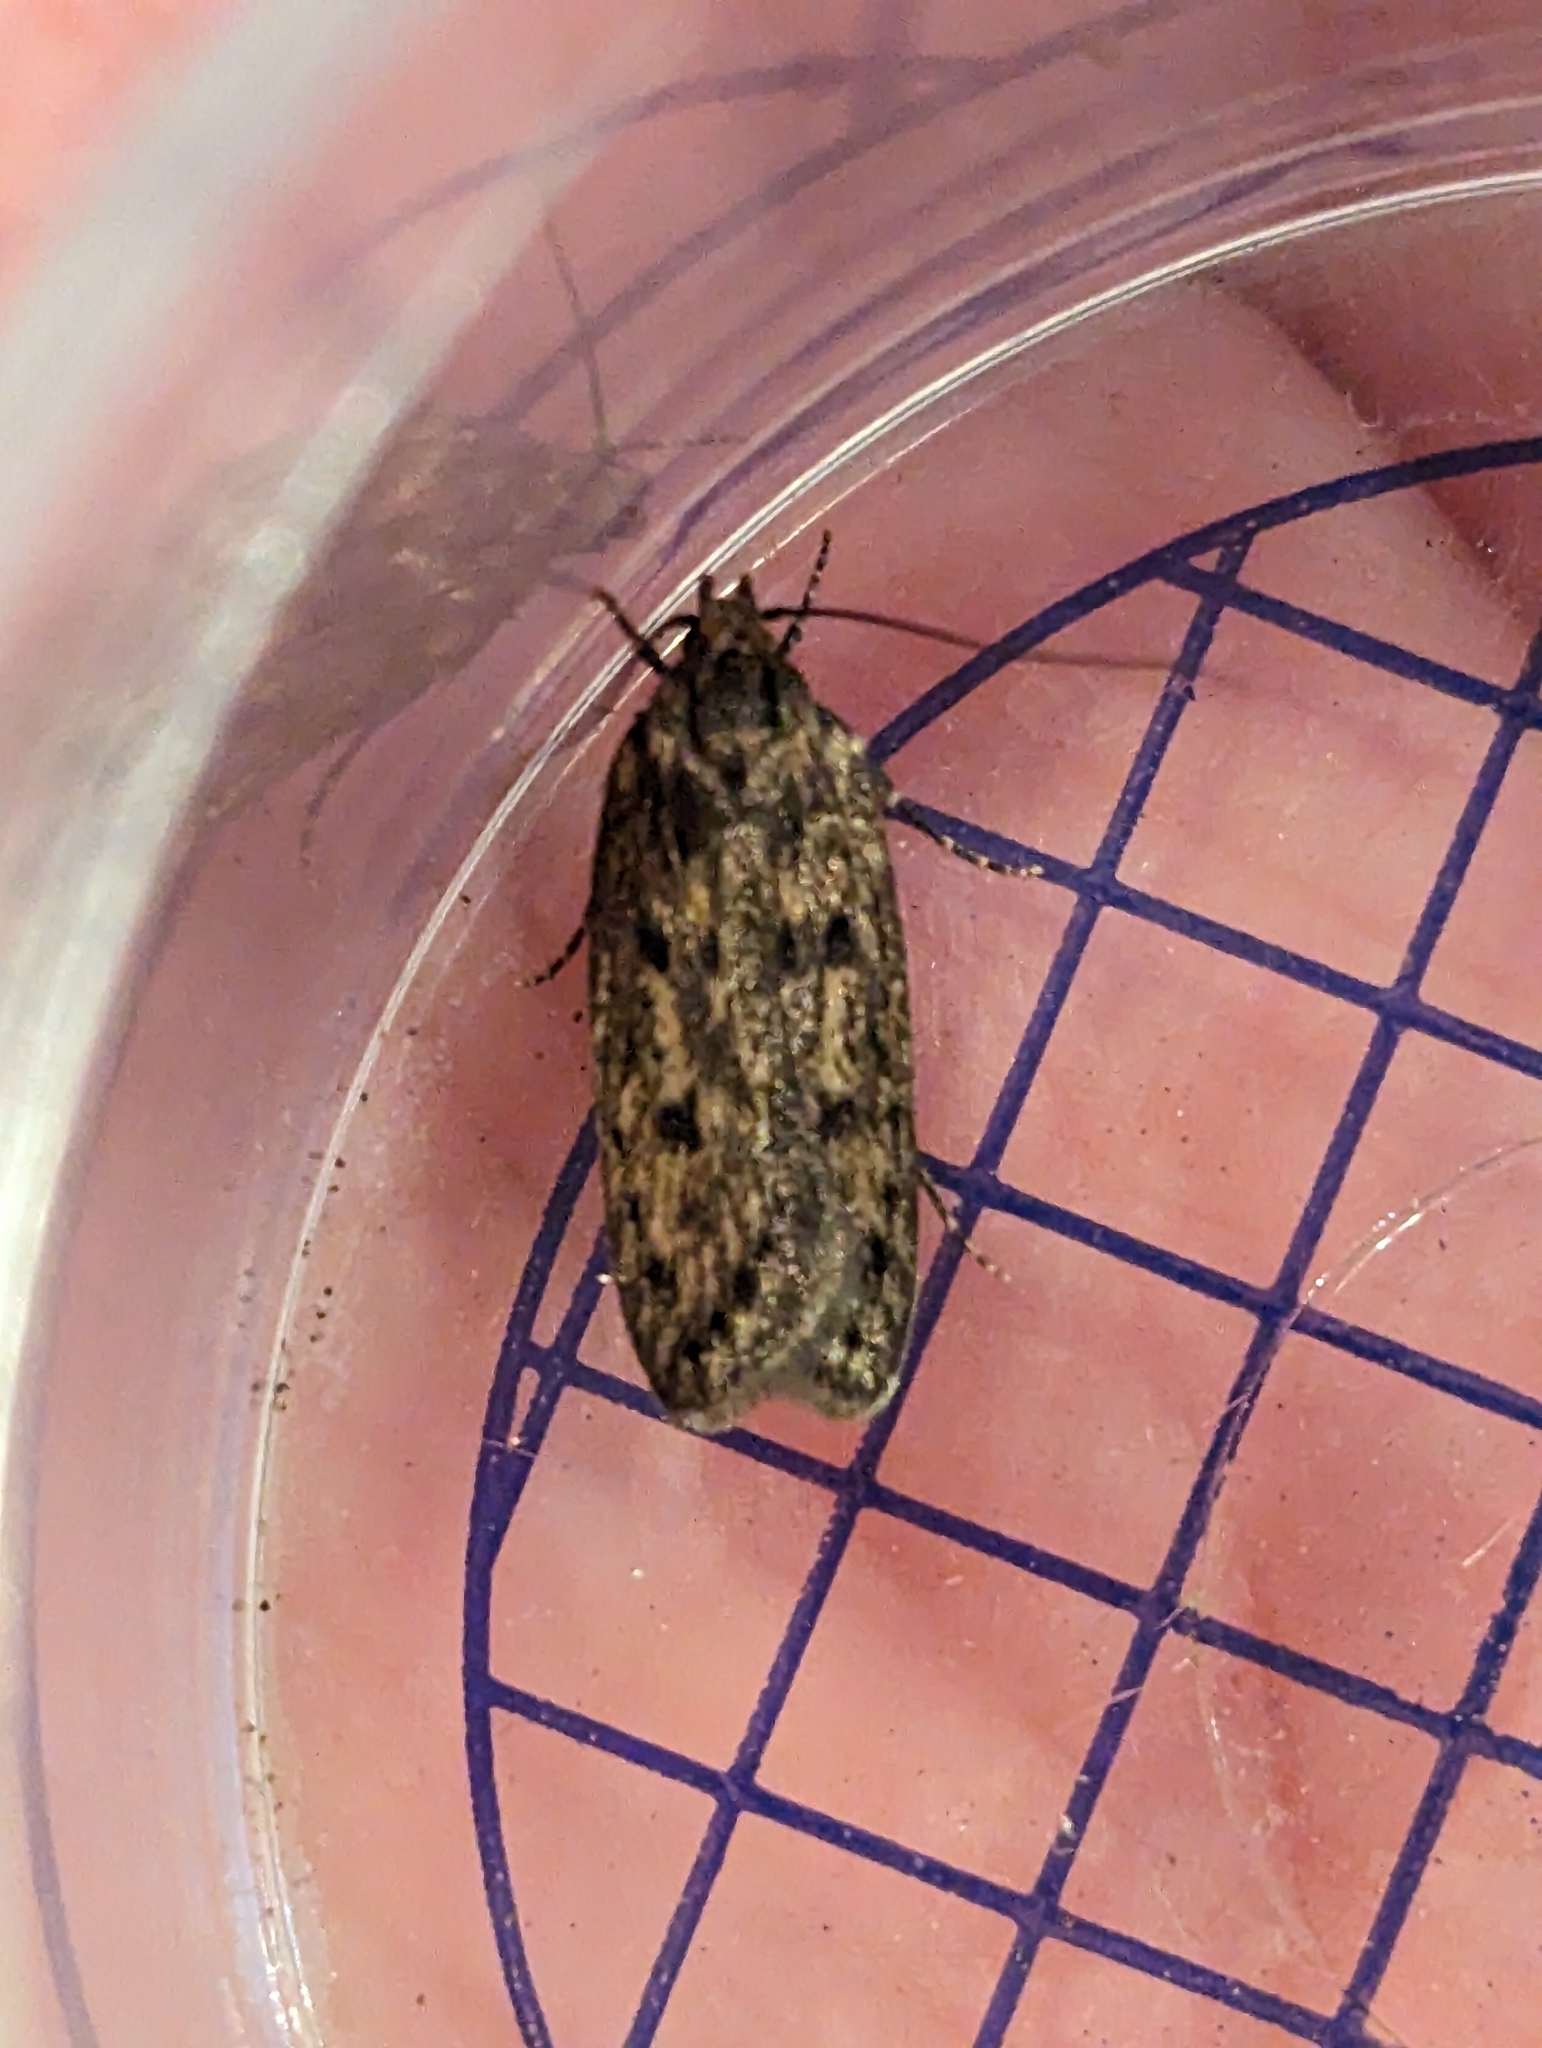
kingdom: Animalia
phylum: Arthropoda
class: Insecta
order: Lepidoptera
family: Oecophoridae
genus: Hofmannophila
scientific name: Hofmannophila pseudospretella
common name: Brown house moth
